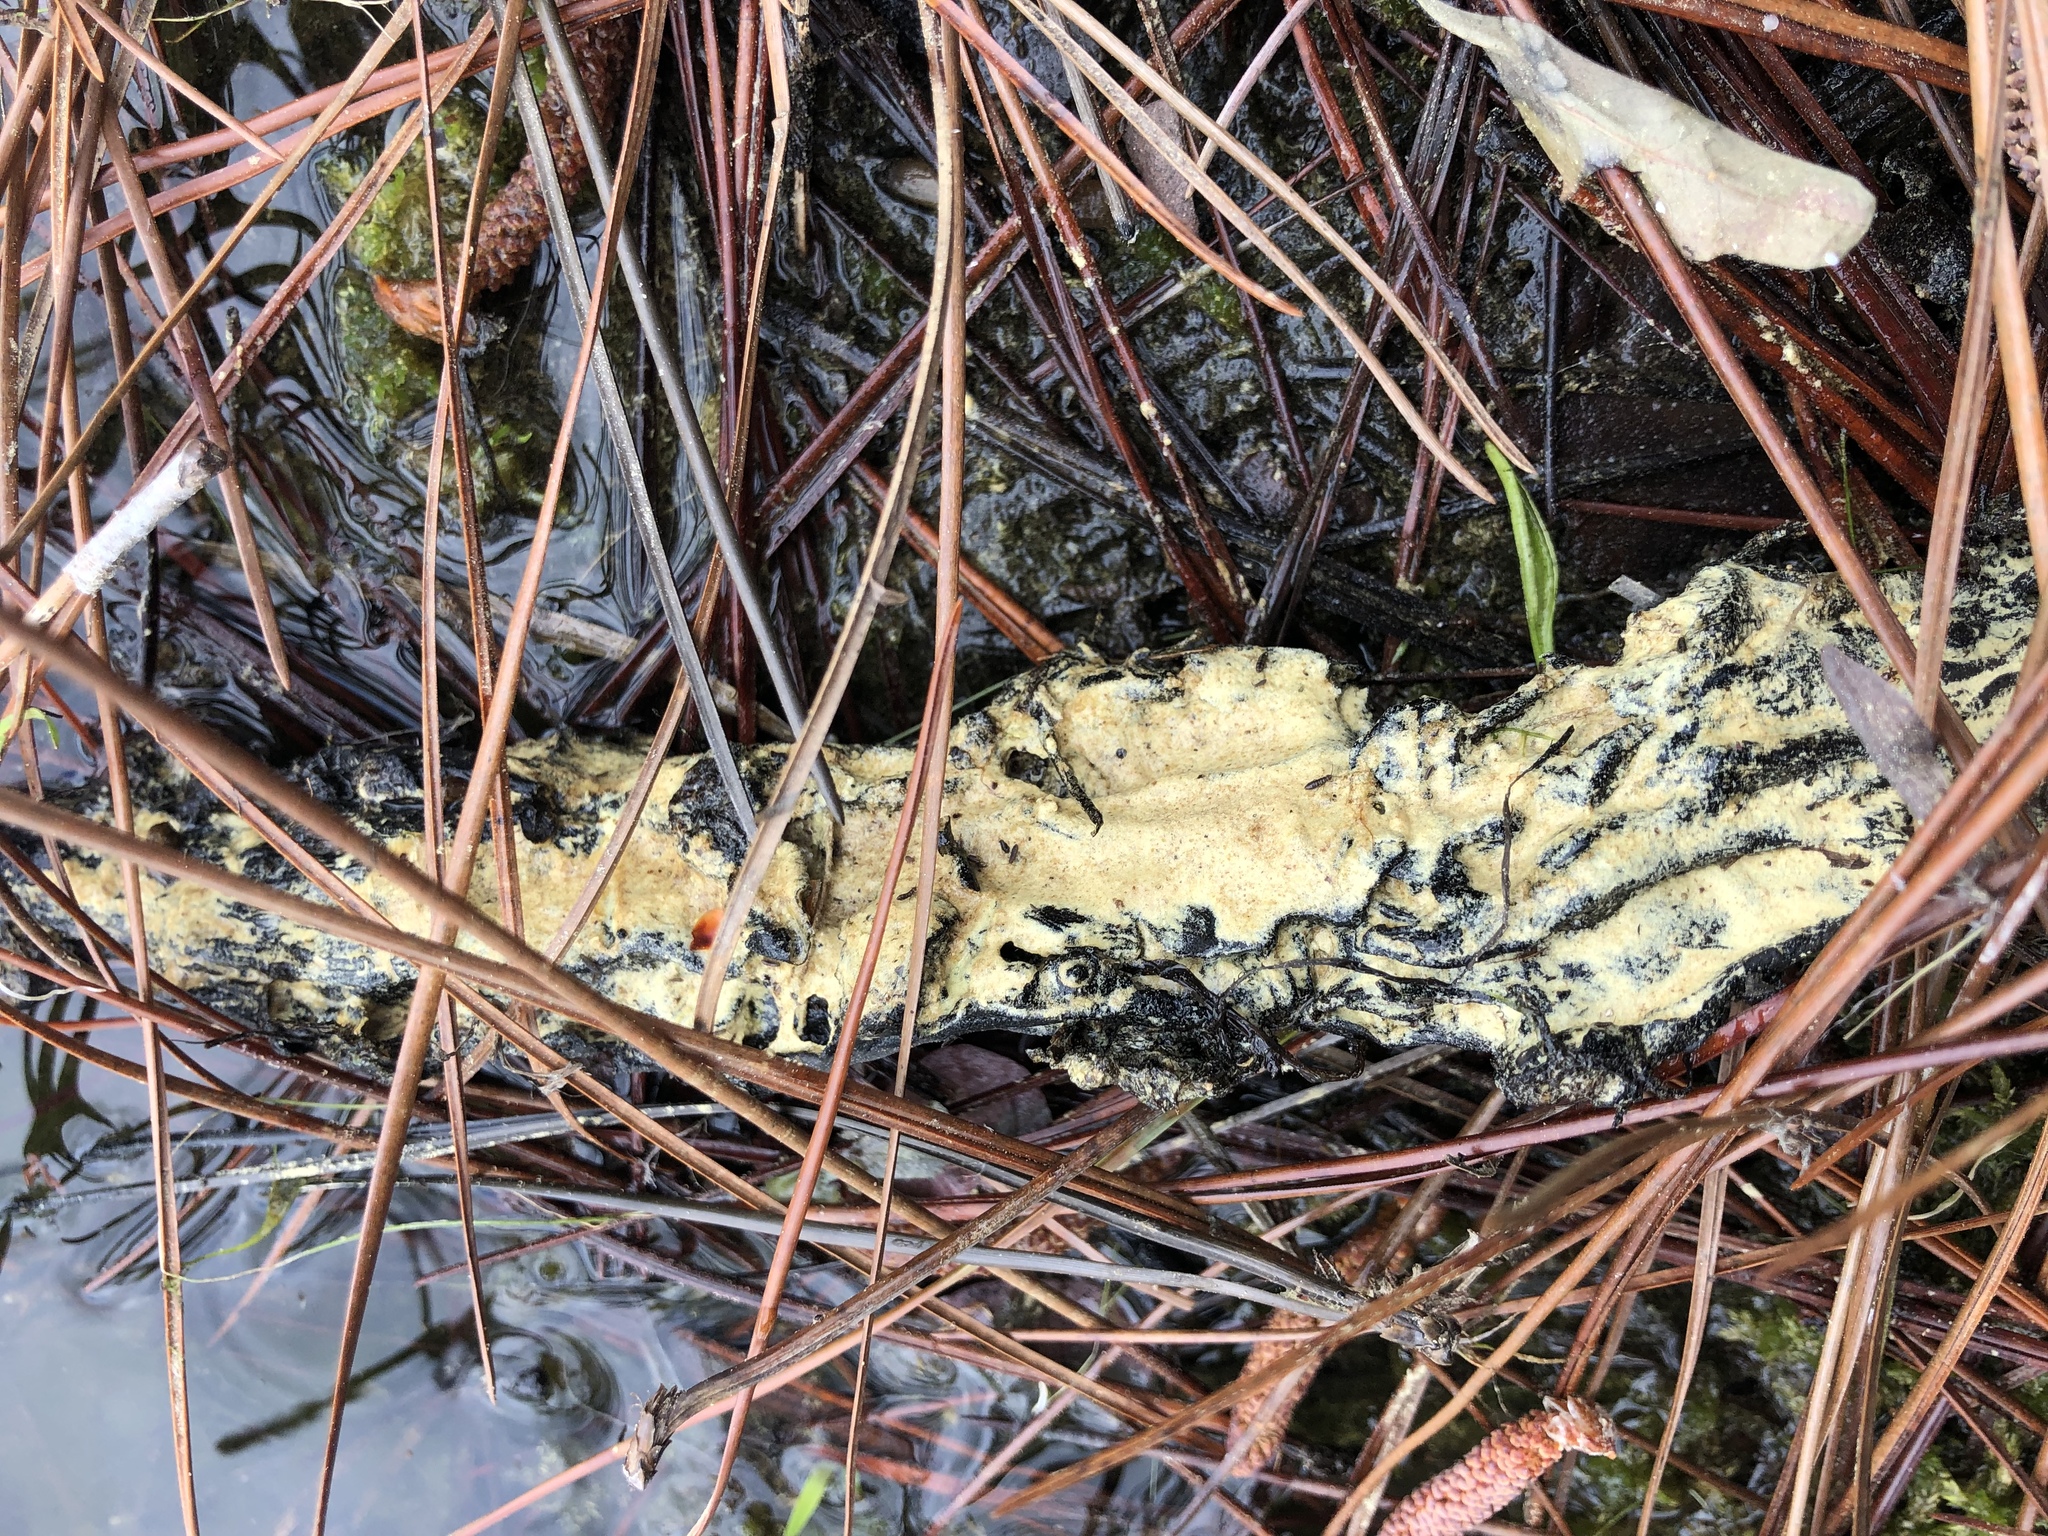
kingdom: Protozoa
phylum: Mycetozoa
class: Myxomycetes
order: Physarales
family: Physaraceae
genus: Fuligo
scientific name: Fuligo septica
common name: Dog vomit slime mold
